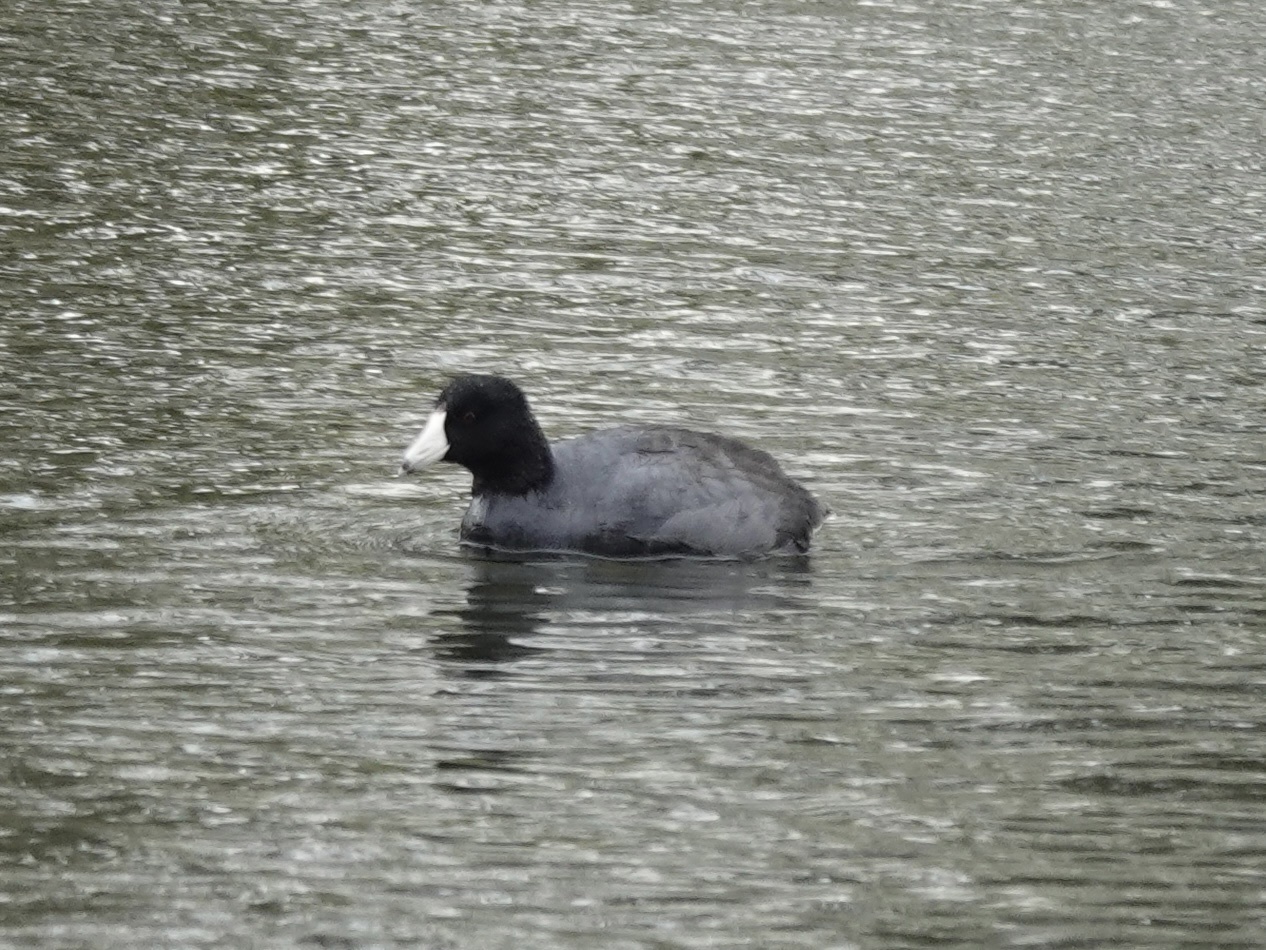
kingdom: Animalia
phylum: Chordata
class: Aves
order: Gruiformes
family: Rallidae
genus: Fulica
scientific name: Fulica americana
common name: American coot
